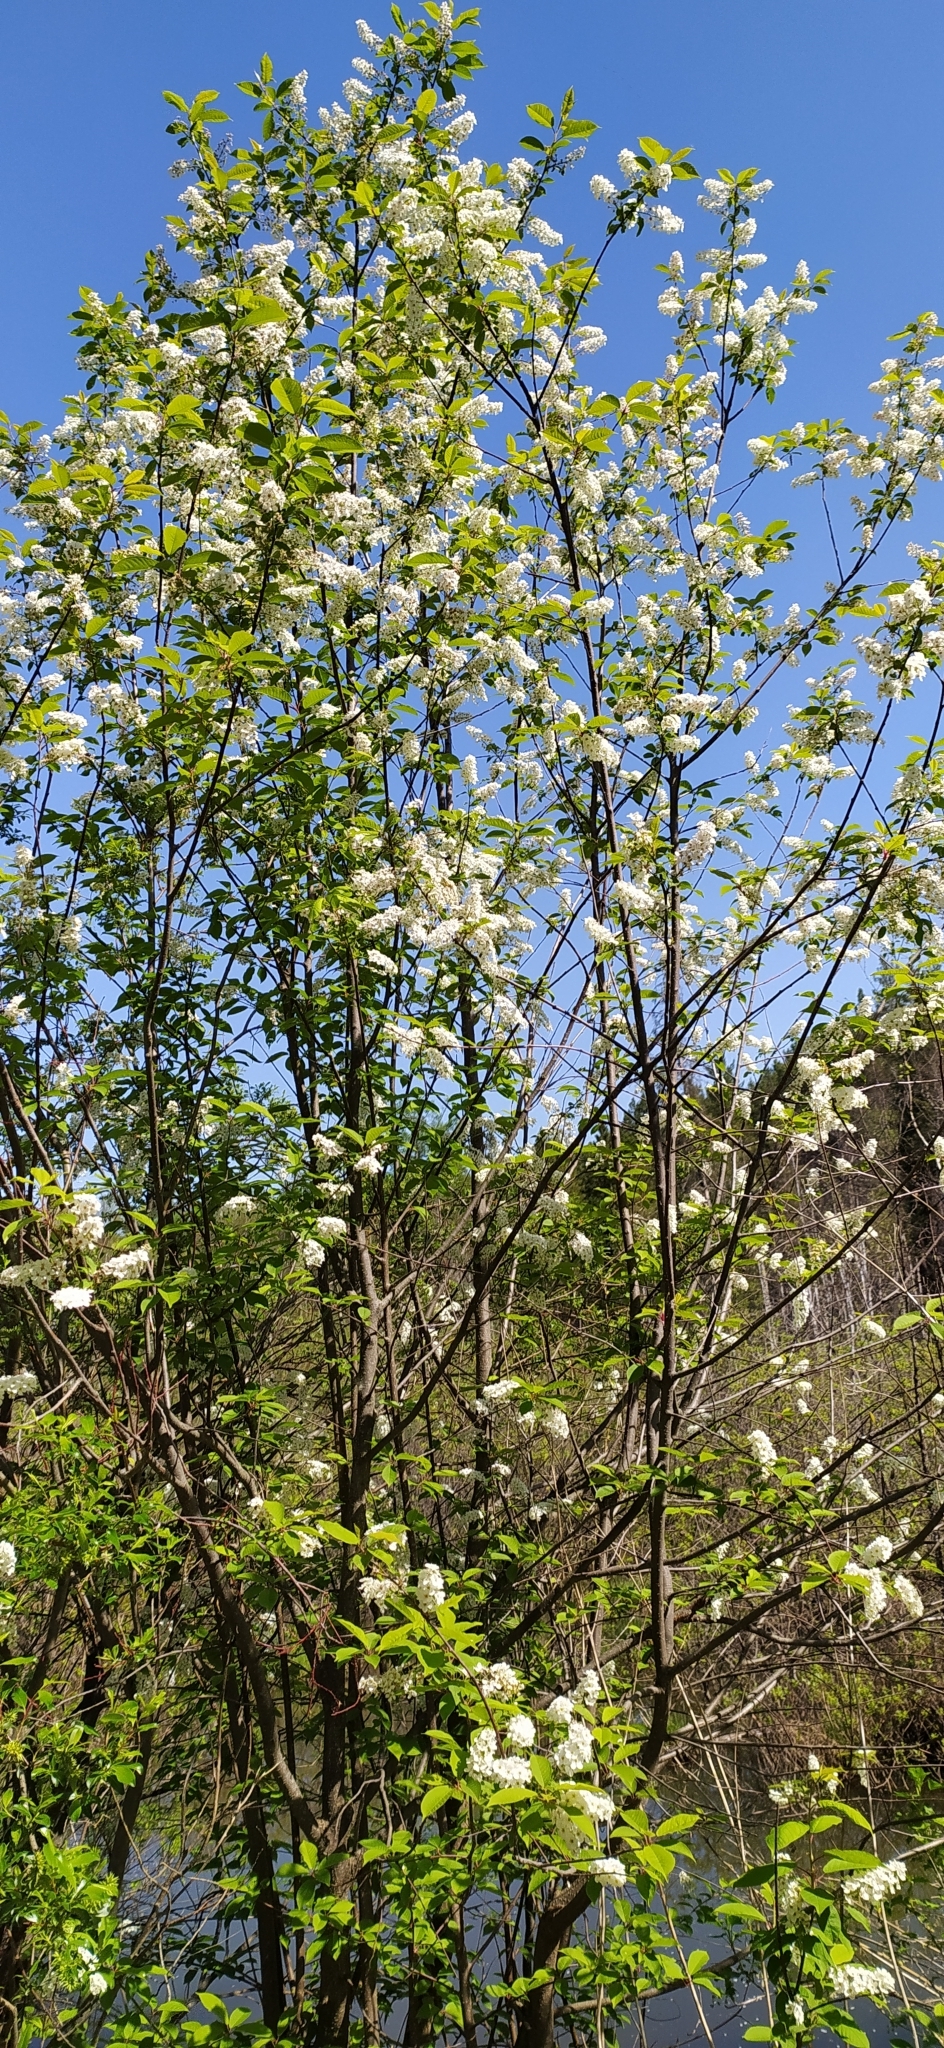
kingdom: Plantae
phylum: Tracheophyta
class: Magnoliopsida
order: Rosales
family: Rosaceae
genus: Prunus
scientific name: Prunus padus
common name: Bird cherry
